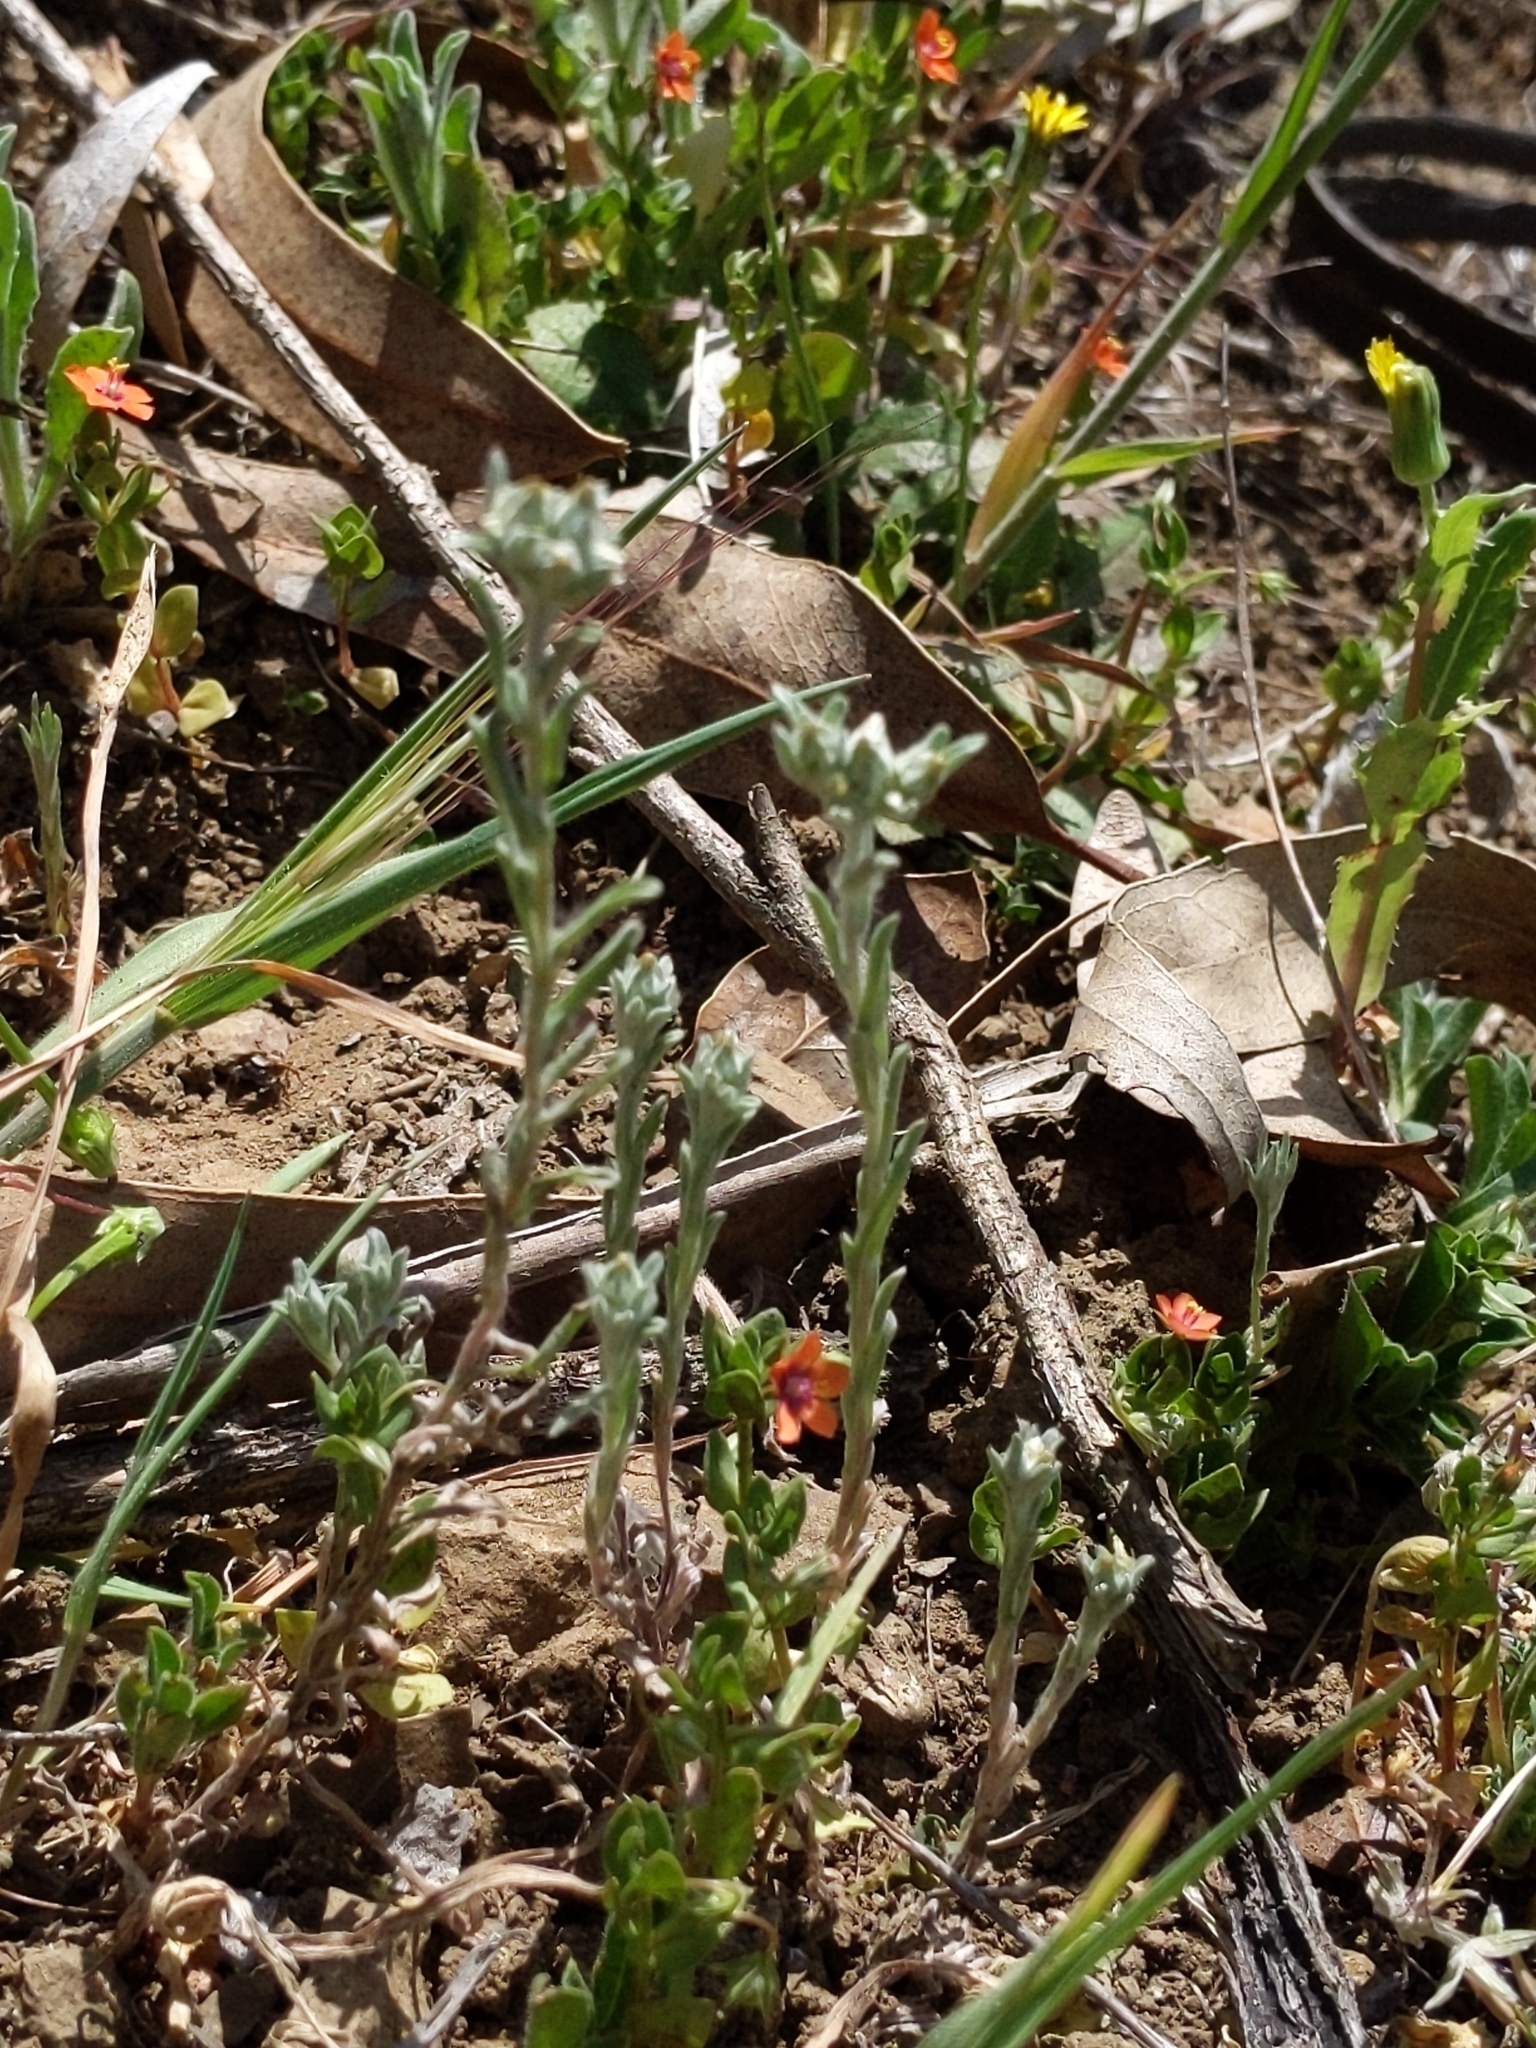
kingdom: Plantae
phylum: Tracheophyta
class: Magnoliopsida
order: Asterales
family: Asteraceae
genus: Logfia
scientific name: Logfia californica
